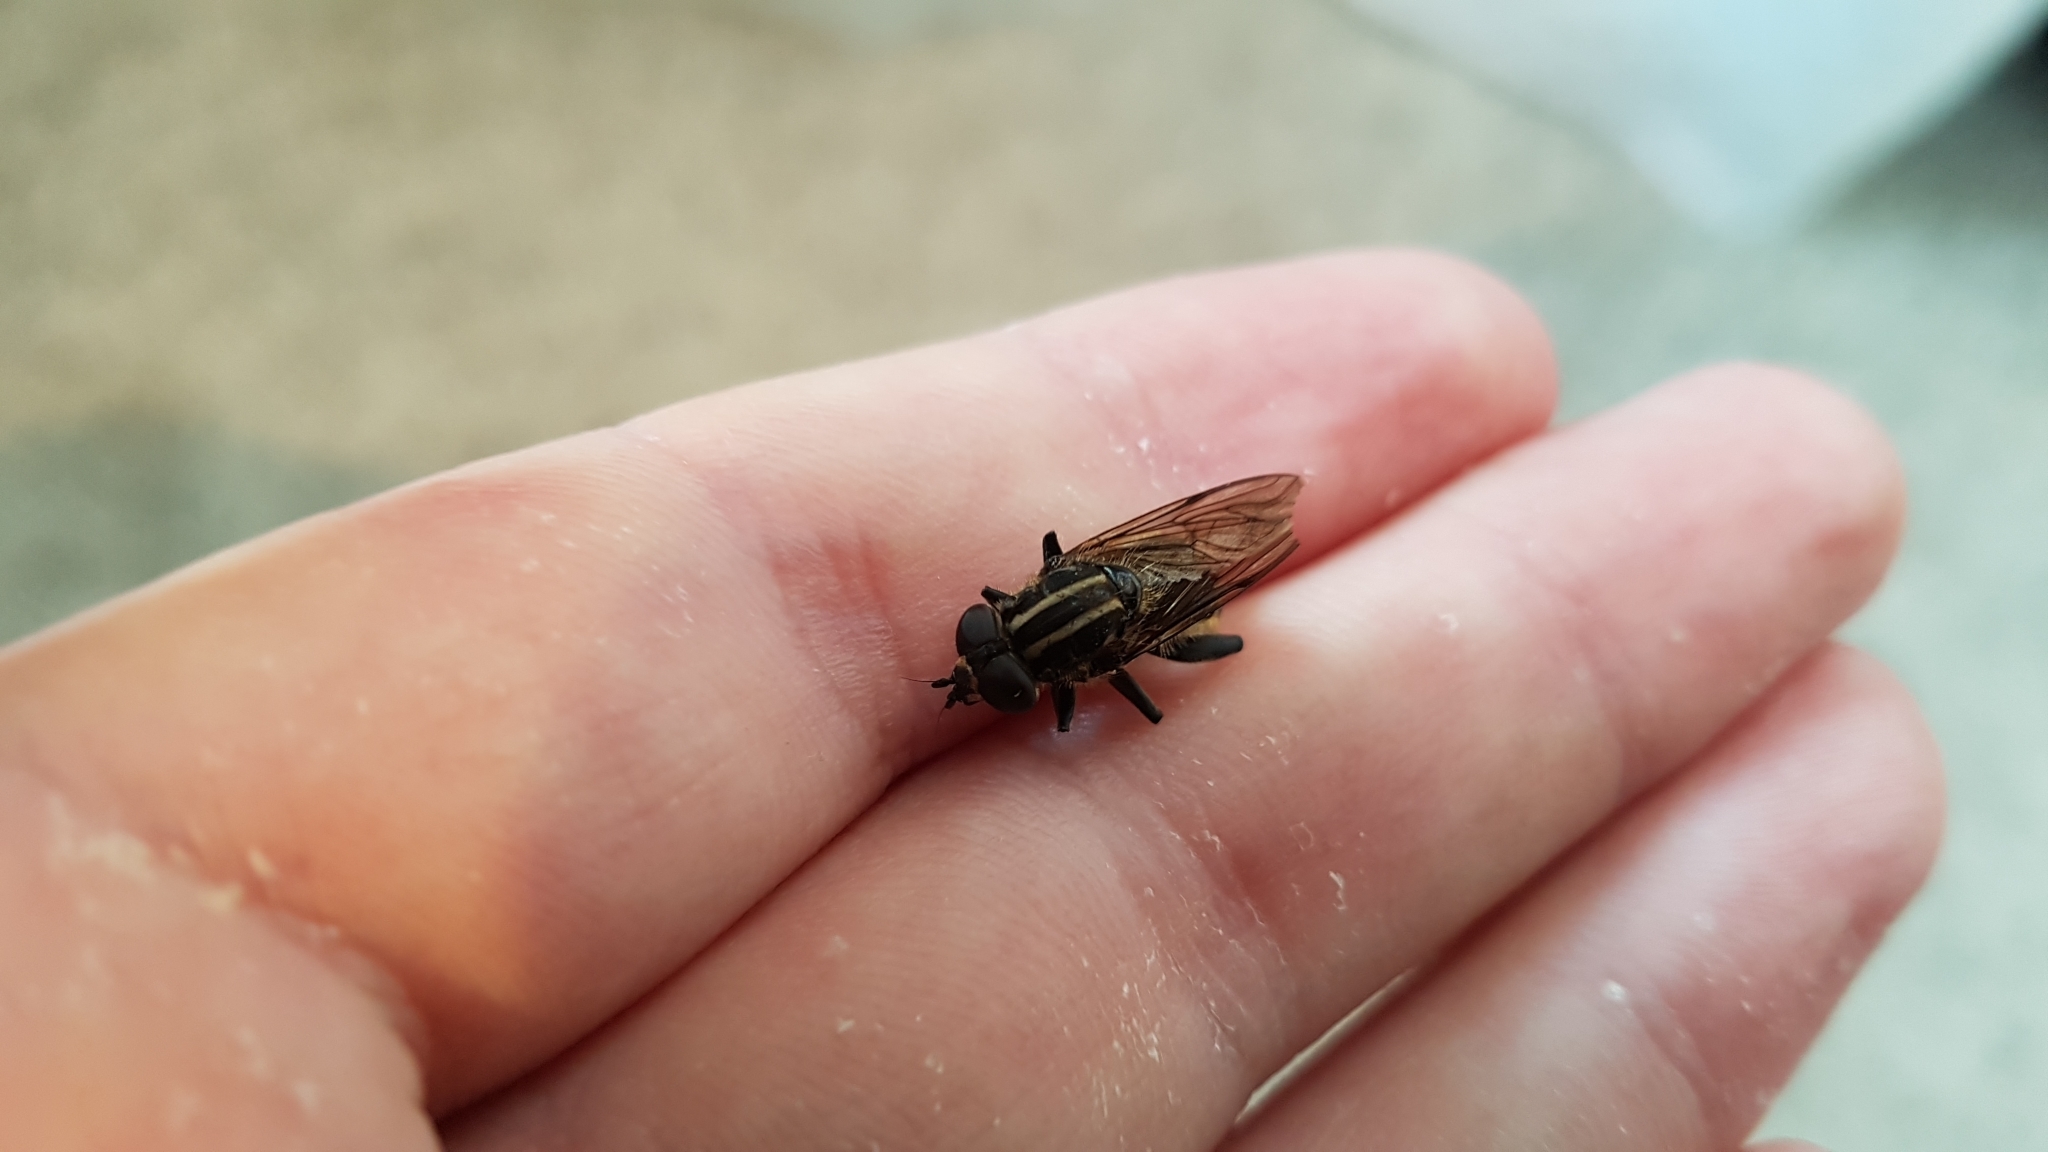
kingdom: Animalia
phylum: Arthropoda
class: Insecta
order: Diptera
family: Syrphidae
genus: Orthoprosopa
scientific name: Orthoprosopa bilineata
